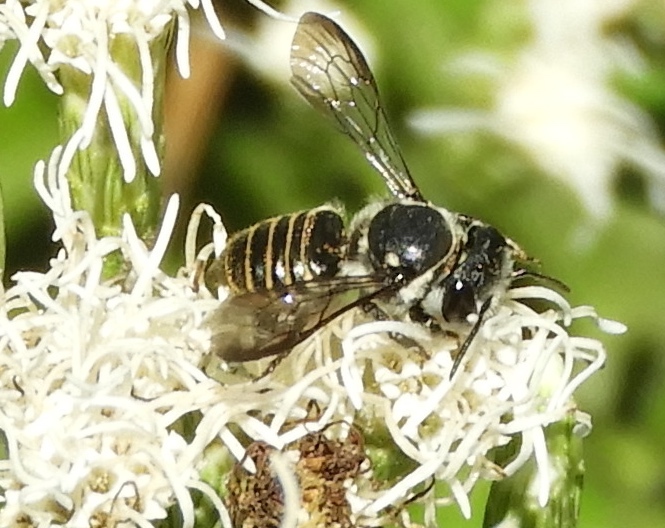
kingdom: Animalia
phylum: Arthropoda
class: Insecta
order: Hymenoptera
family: Megachilidae
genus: Megachile
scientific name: Megachile
